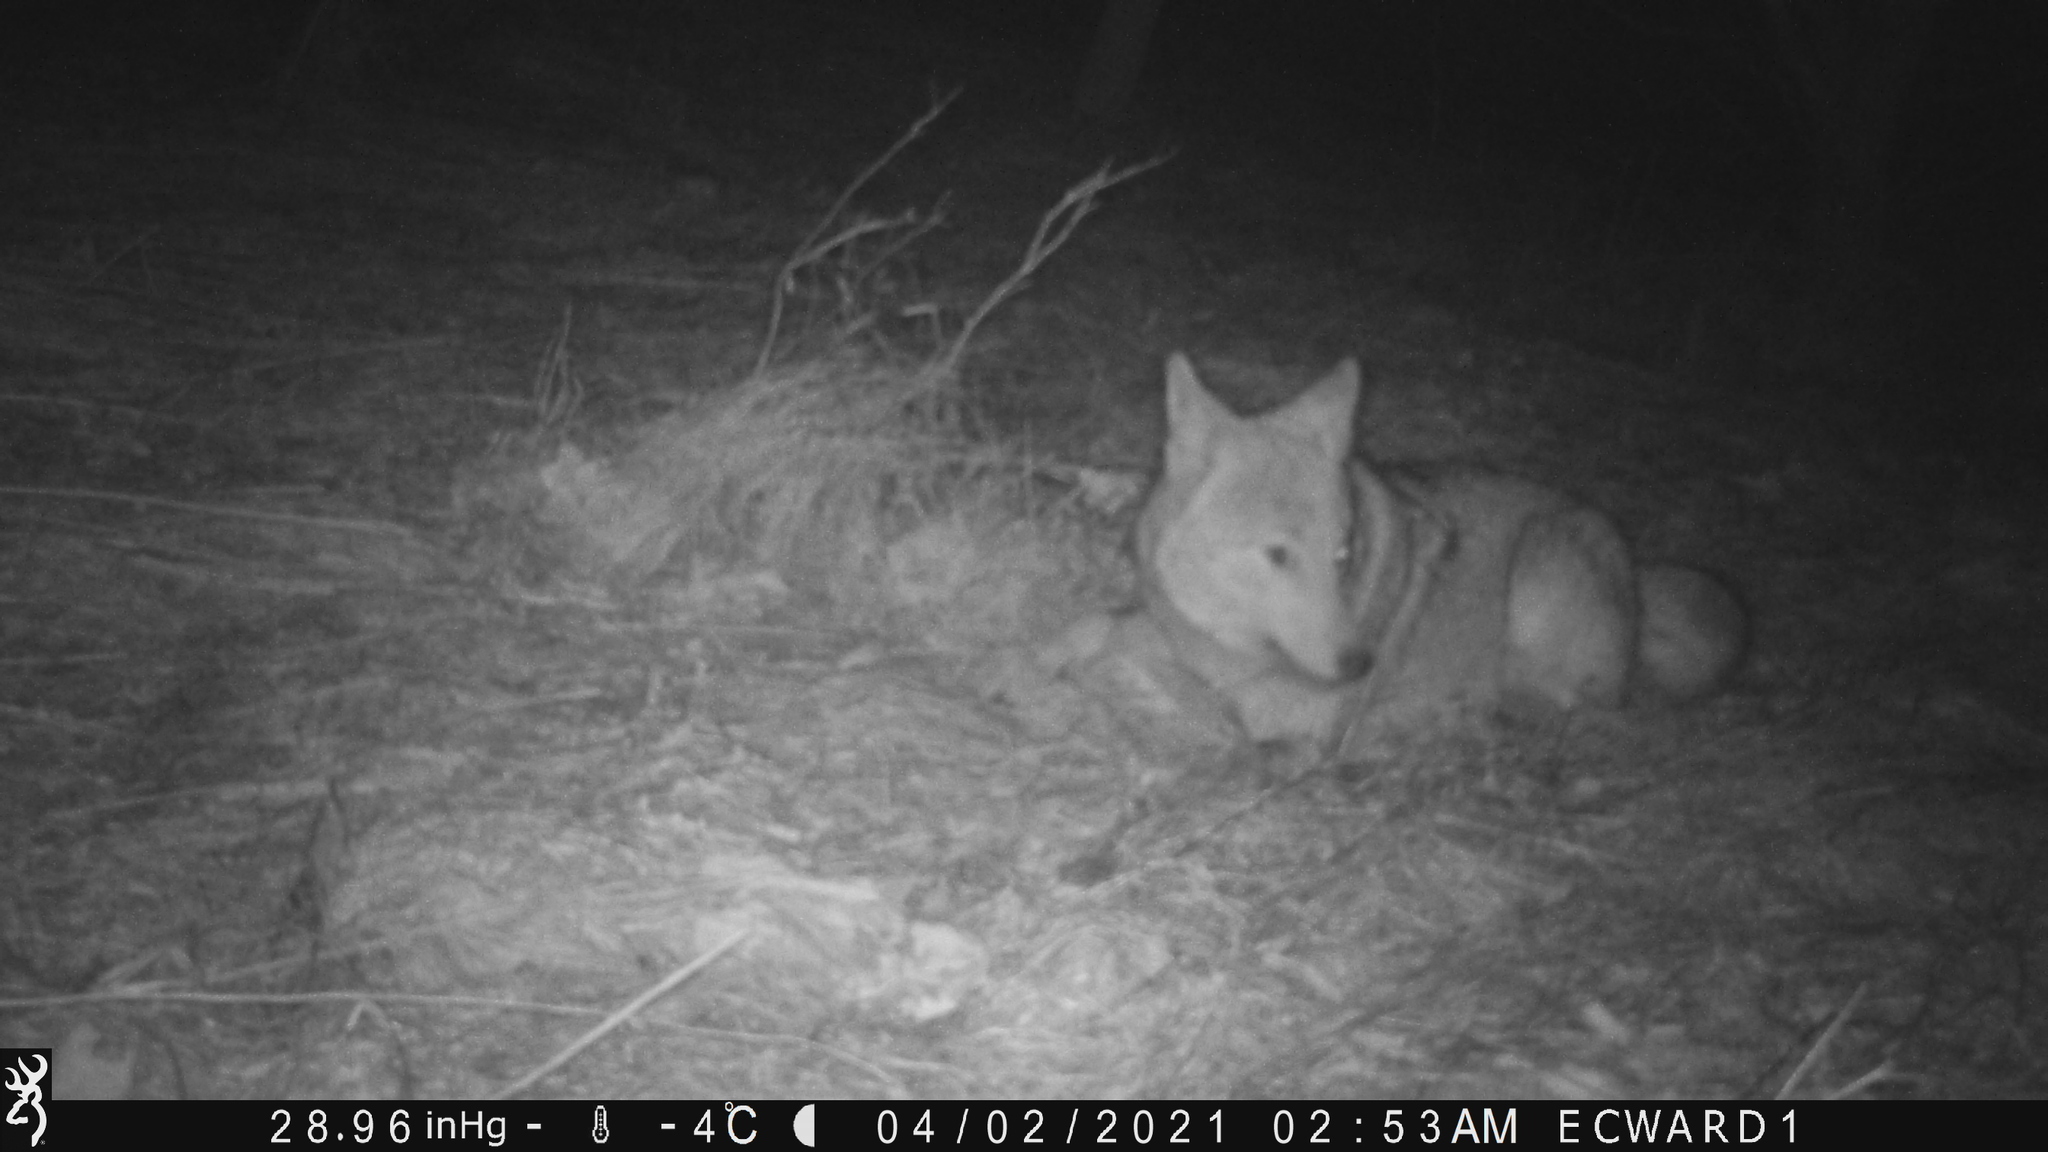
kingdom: Animalia
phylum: Chordata
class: Mammalia
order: Carnivora
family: Canidae
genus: Canis
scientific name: Canis latrans
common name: Coyote
